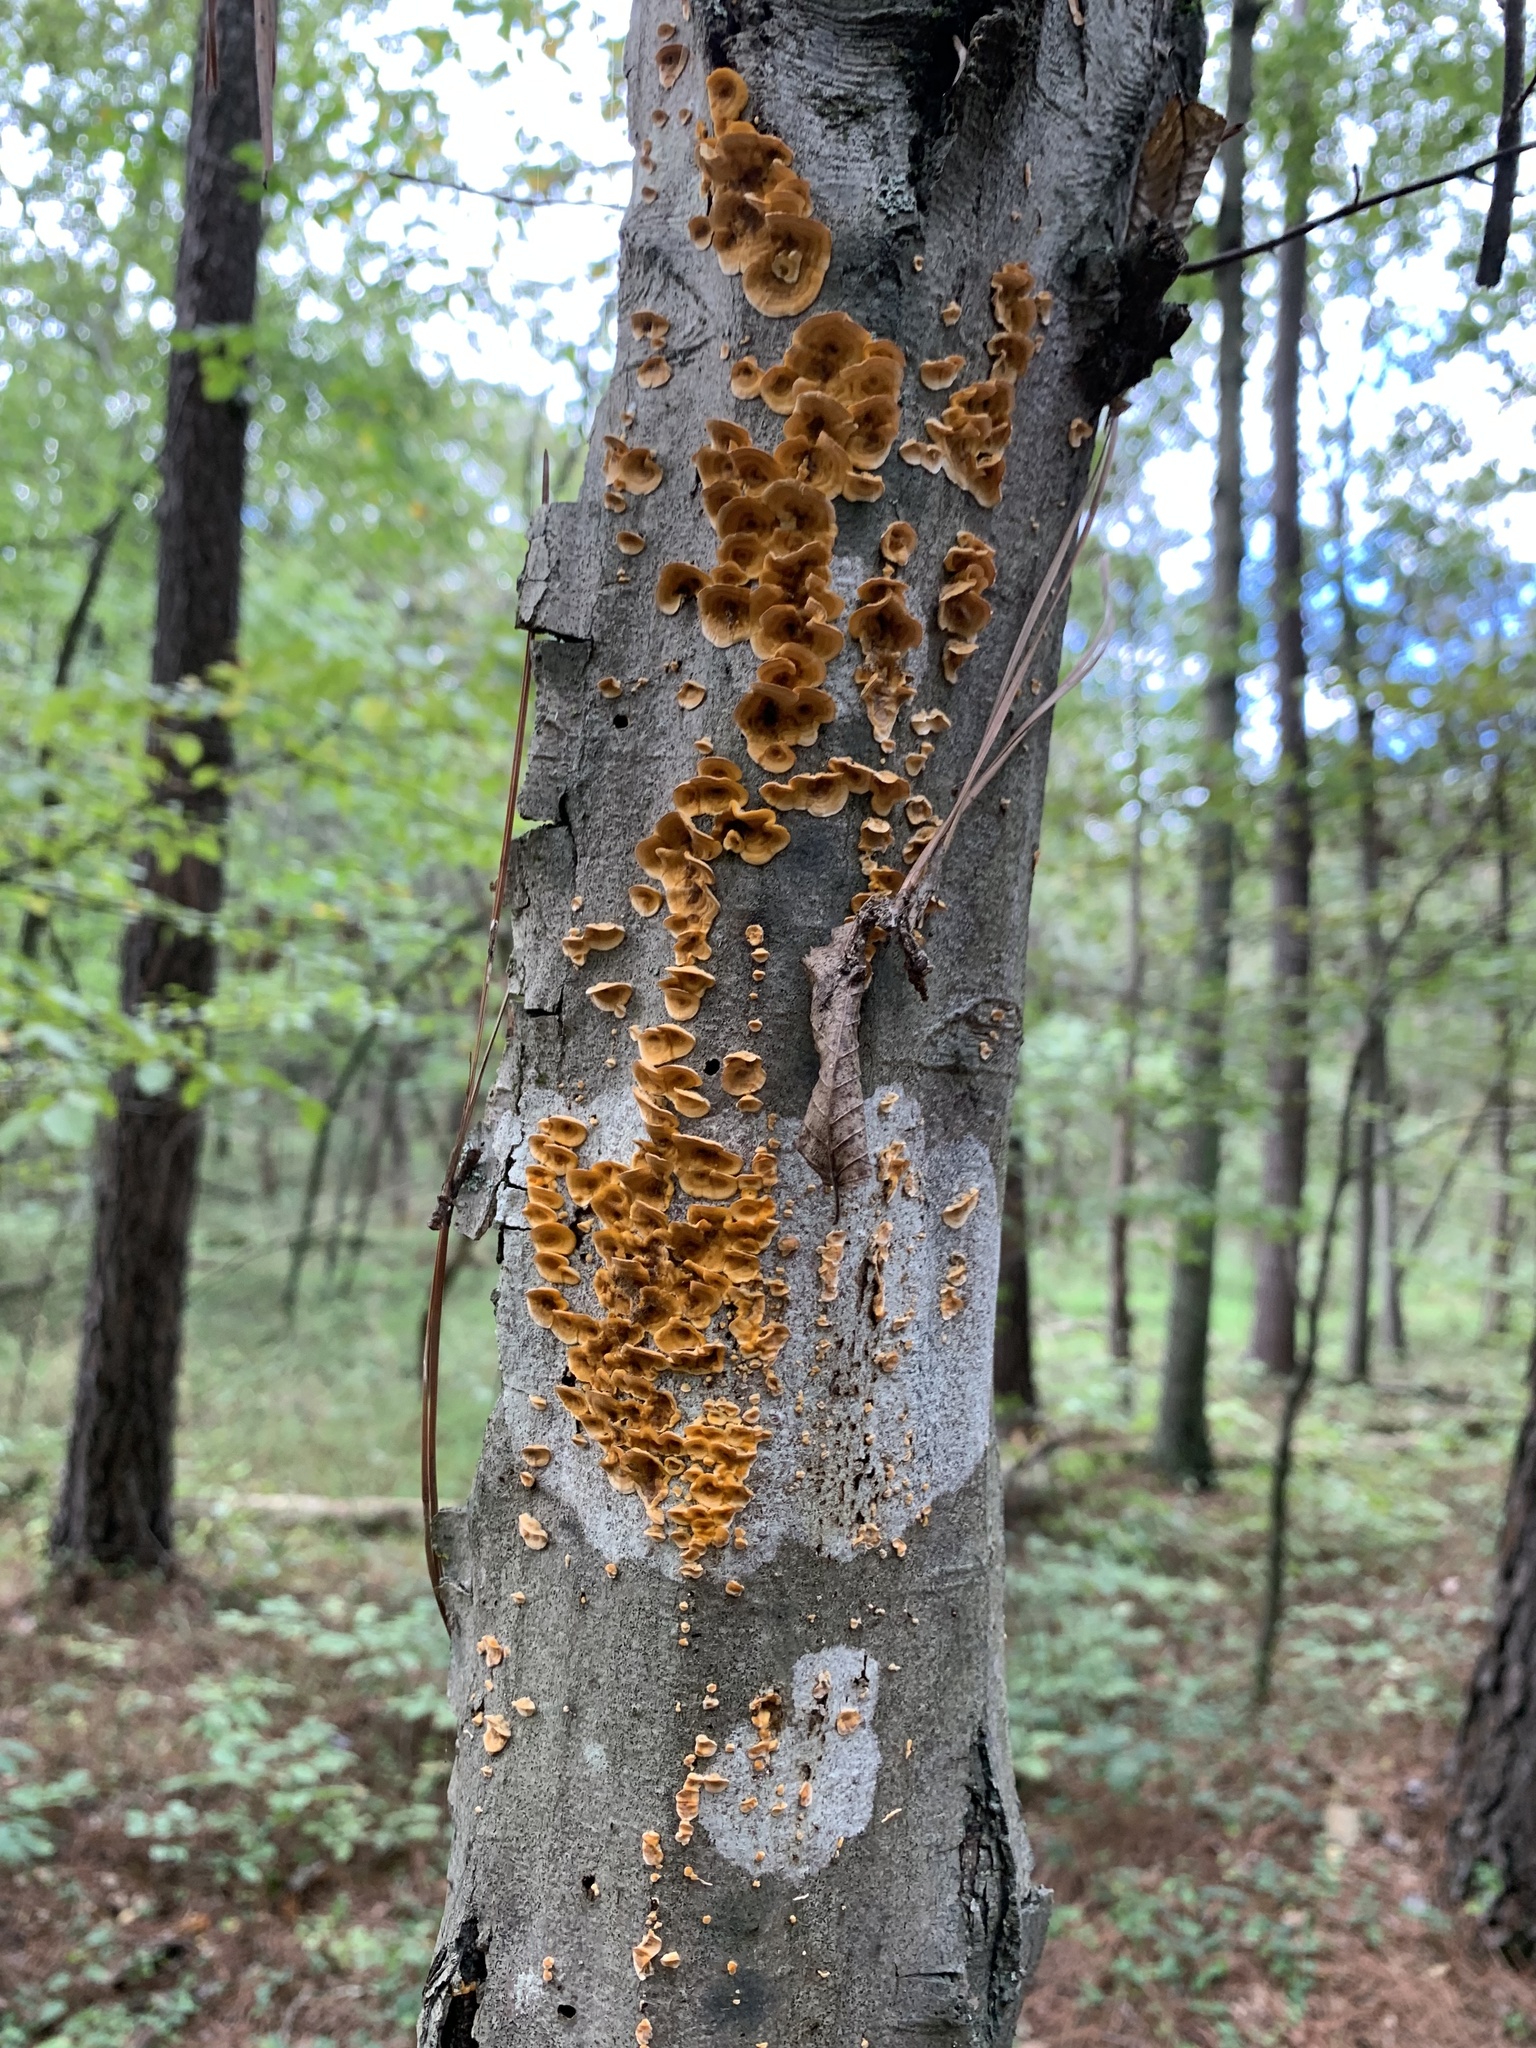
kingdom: Fungi
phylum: Basidiomycota
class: Agaricomycetes
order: Russulales
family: Stereaceae
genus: Stereum
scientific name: Stereum complicatum
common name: Crowded parchment
